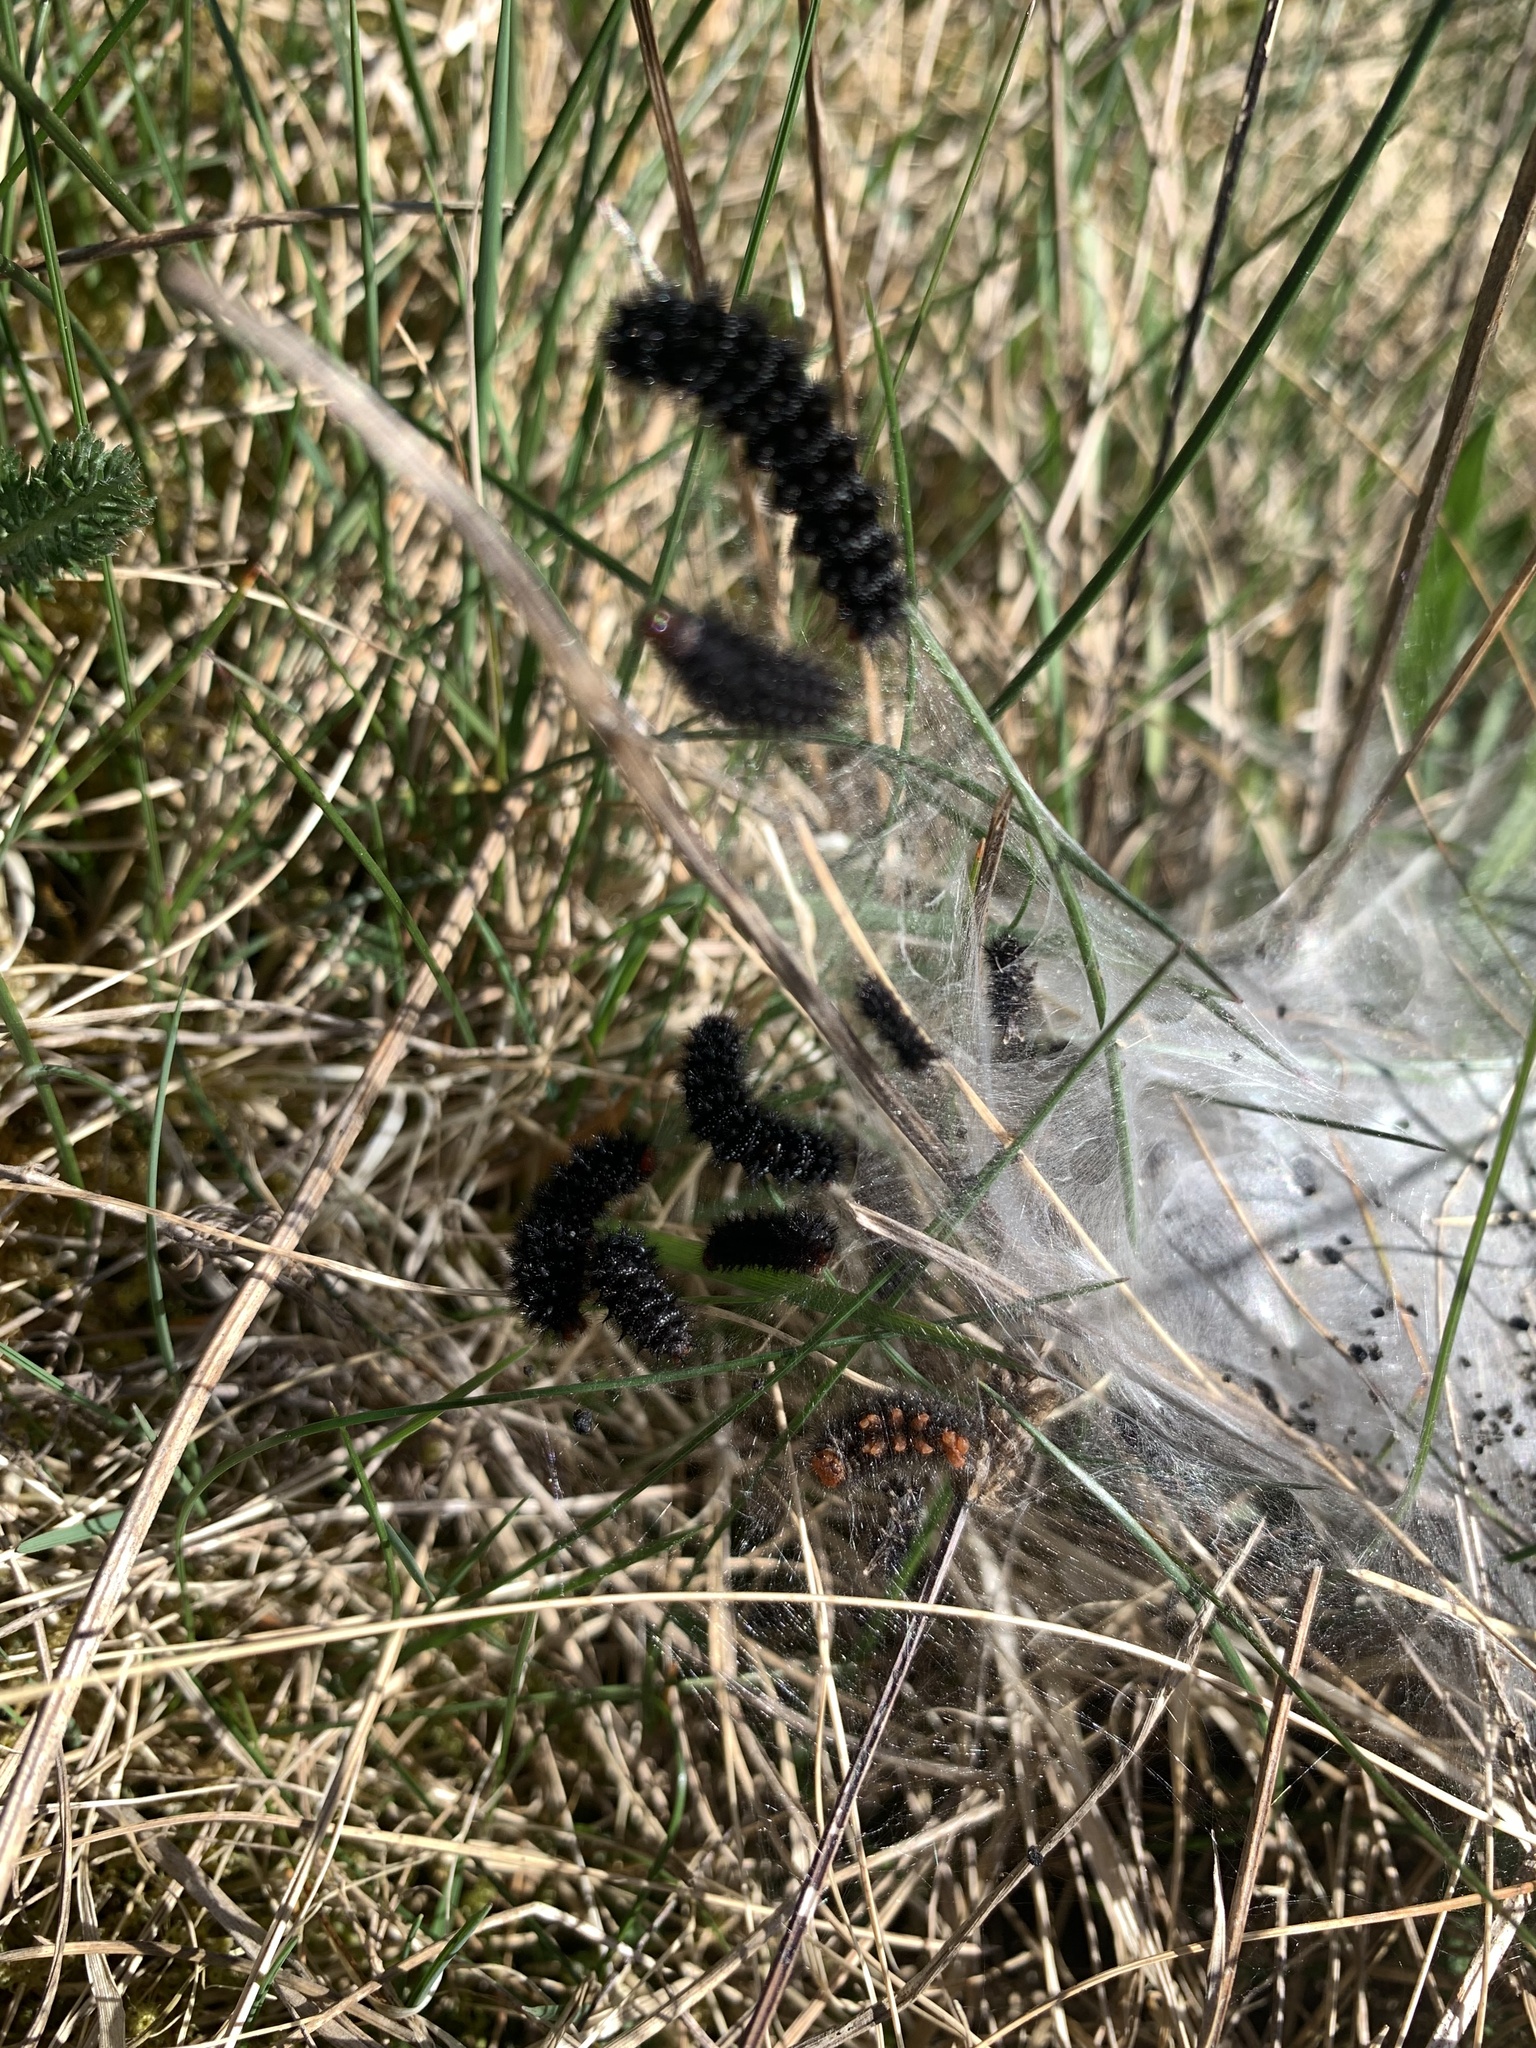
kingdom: Animalia
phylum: Arthropoda
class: Insecta
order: Lepidoptera
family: Nymphalidae
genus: Melitaea
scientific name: Melitaea cinxia
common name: Glanville fritillary
